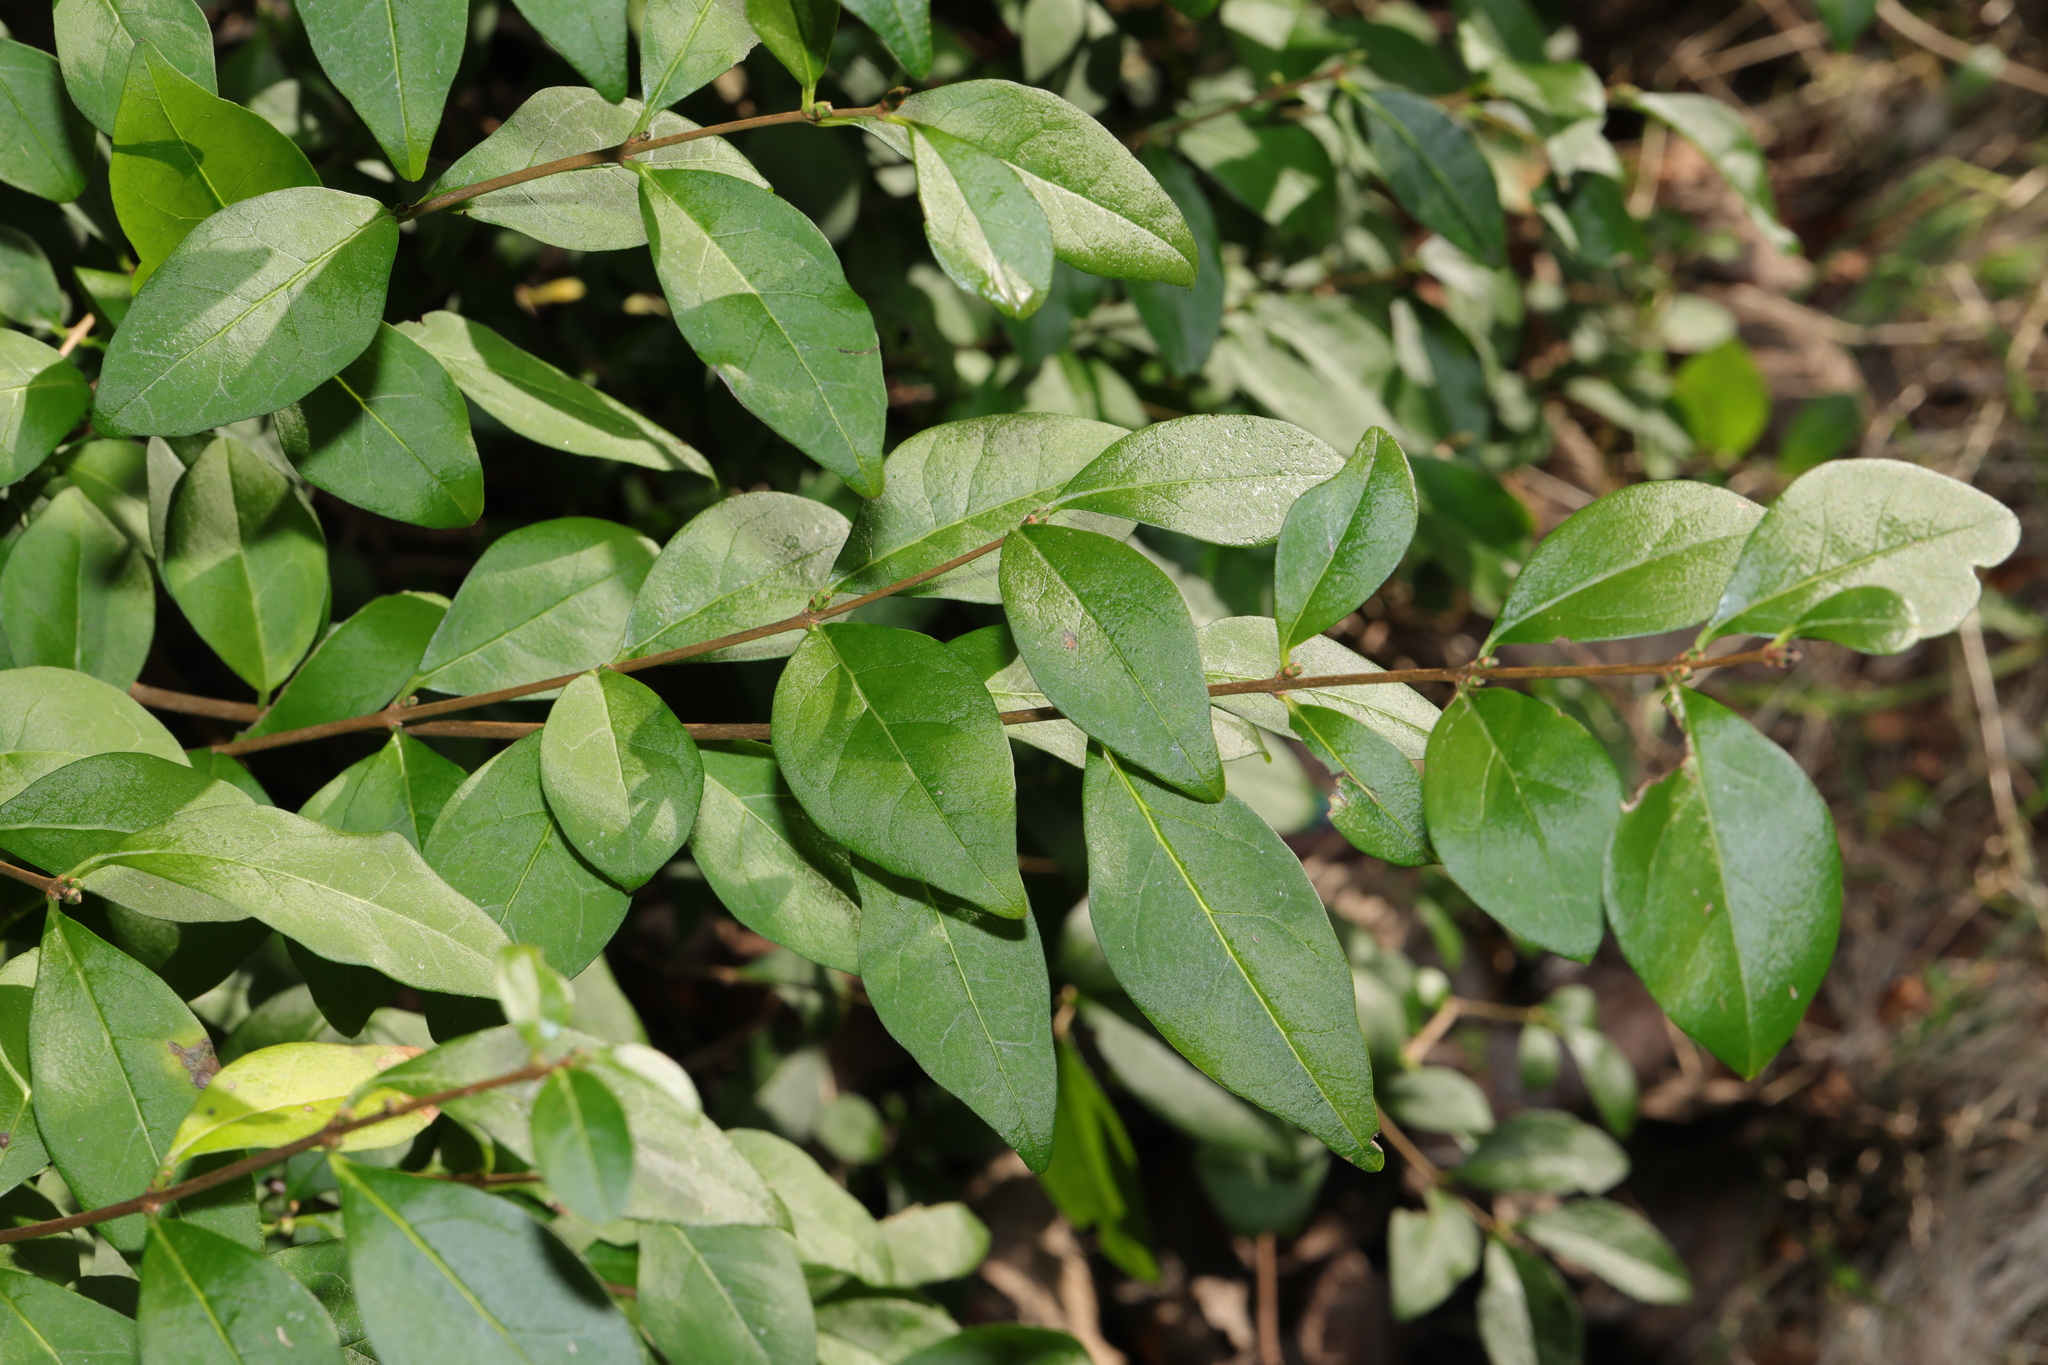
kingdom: Plantae
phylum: Tracheophyta
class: Magnoliopsida
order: Lamiales
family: Oleaceae
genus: Ligustrum
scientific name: Ligustrum ovalifolium
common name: California privet
